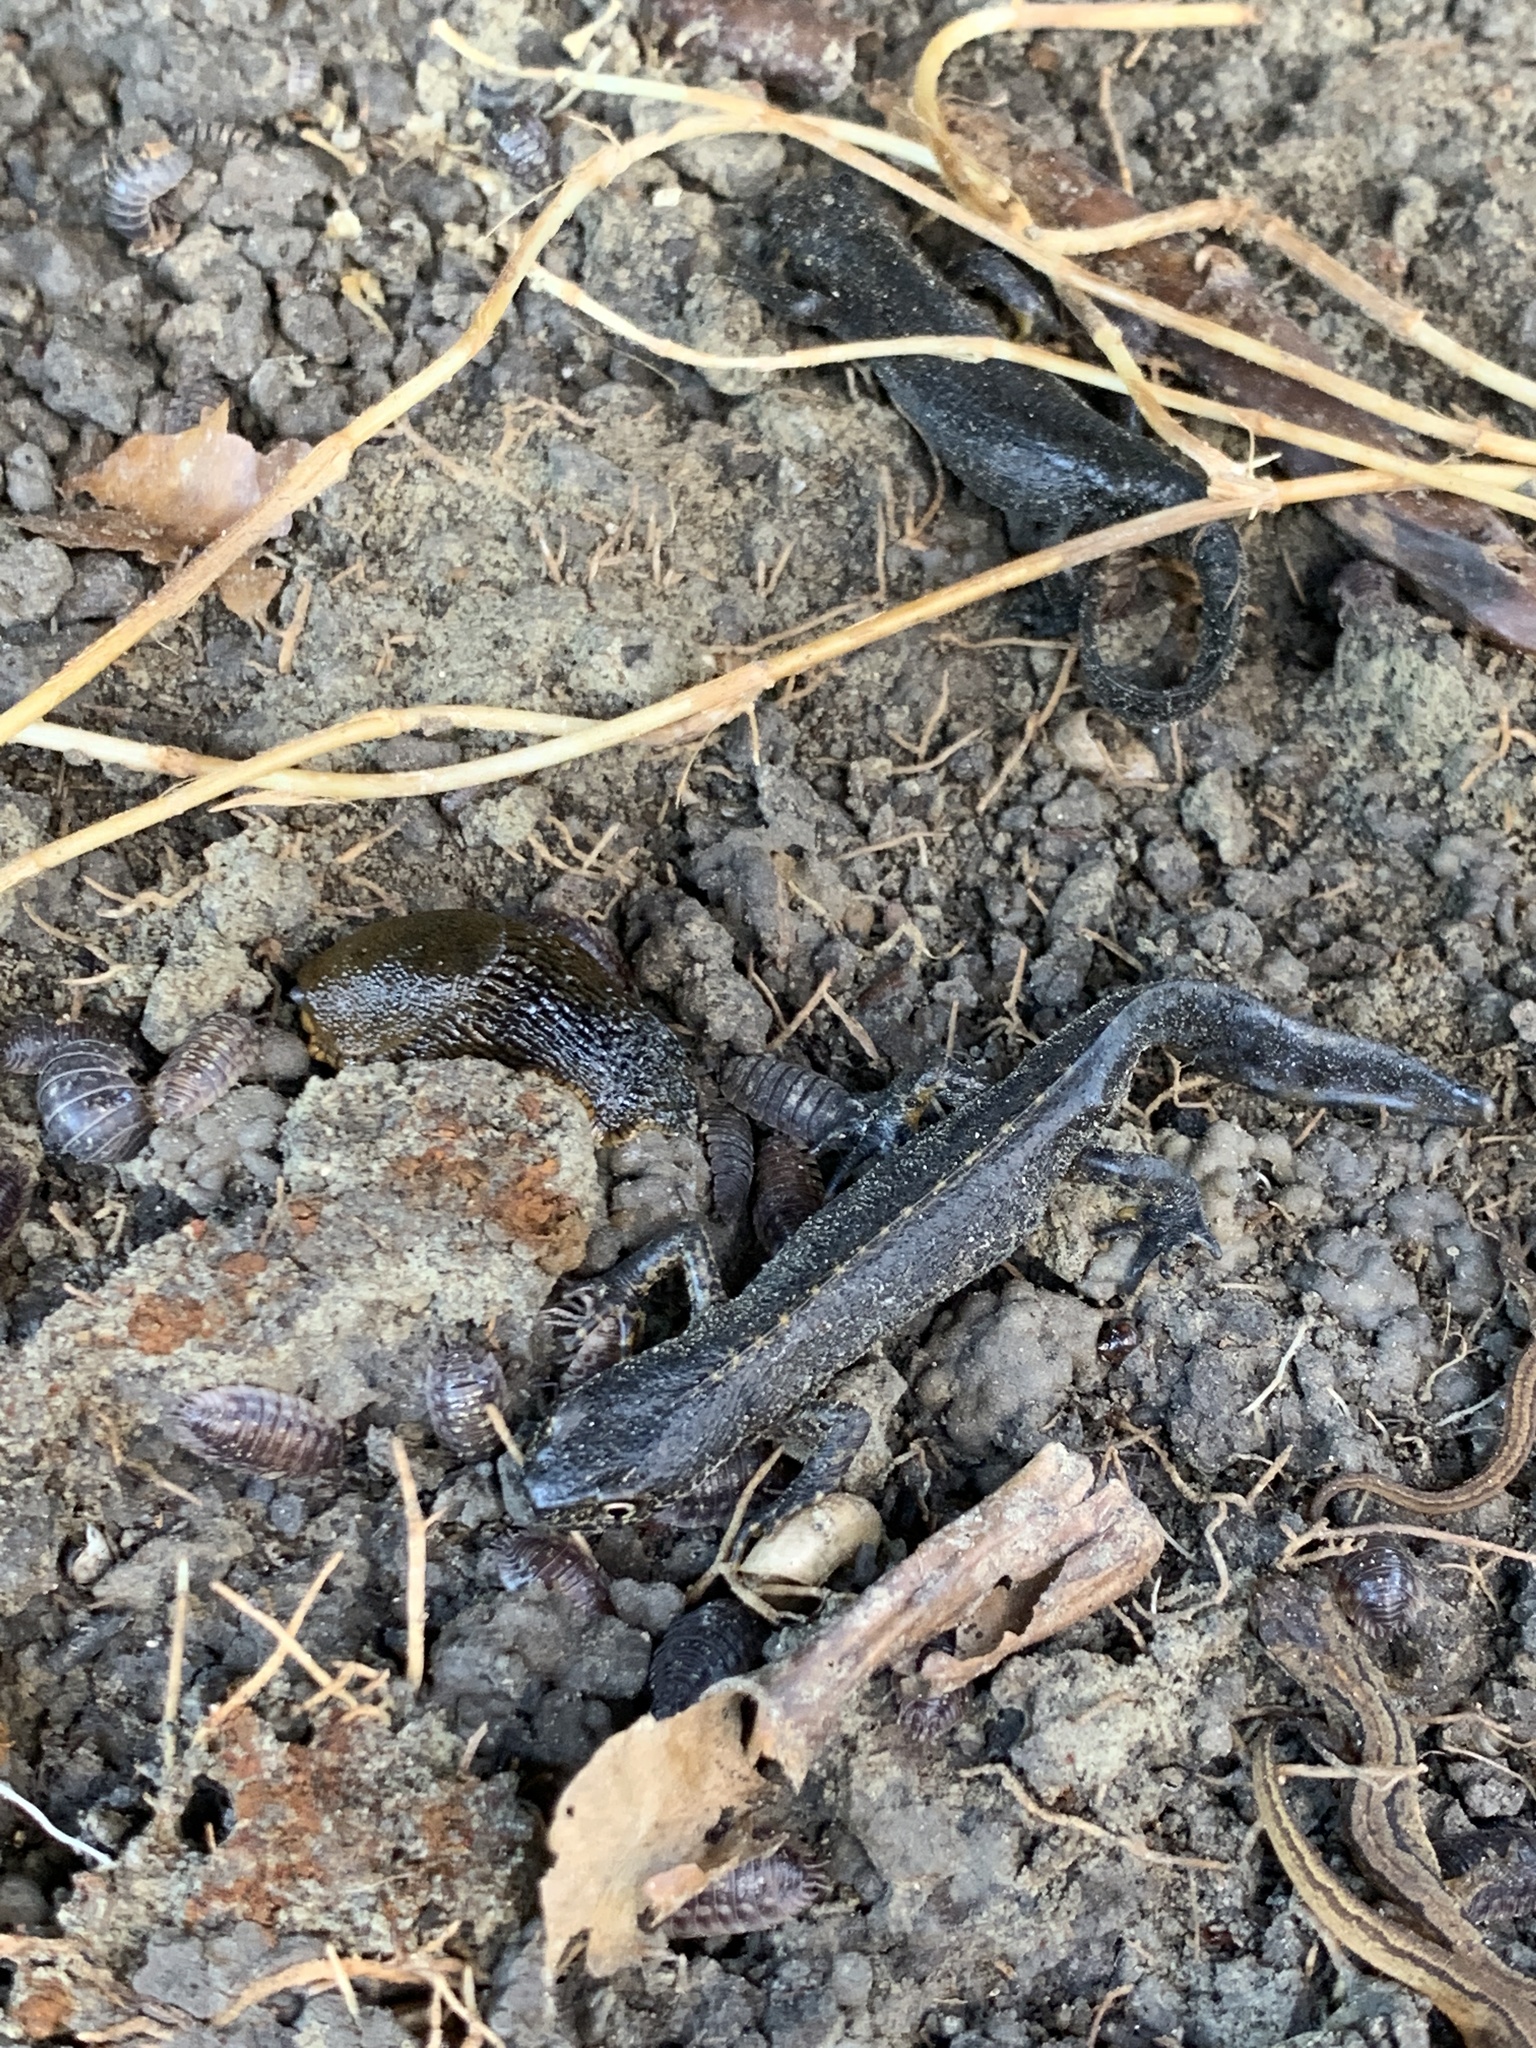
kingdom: Animalia
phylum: Chordata
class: Amphibia
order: Caudata
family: Salamandridae
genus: Ichthyosaura
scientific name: Ichthyosaura alpestris
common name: Alpine newt
